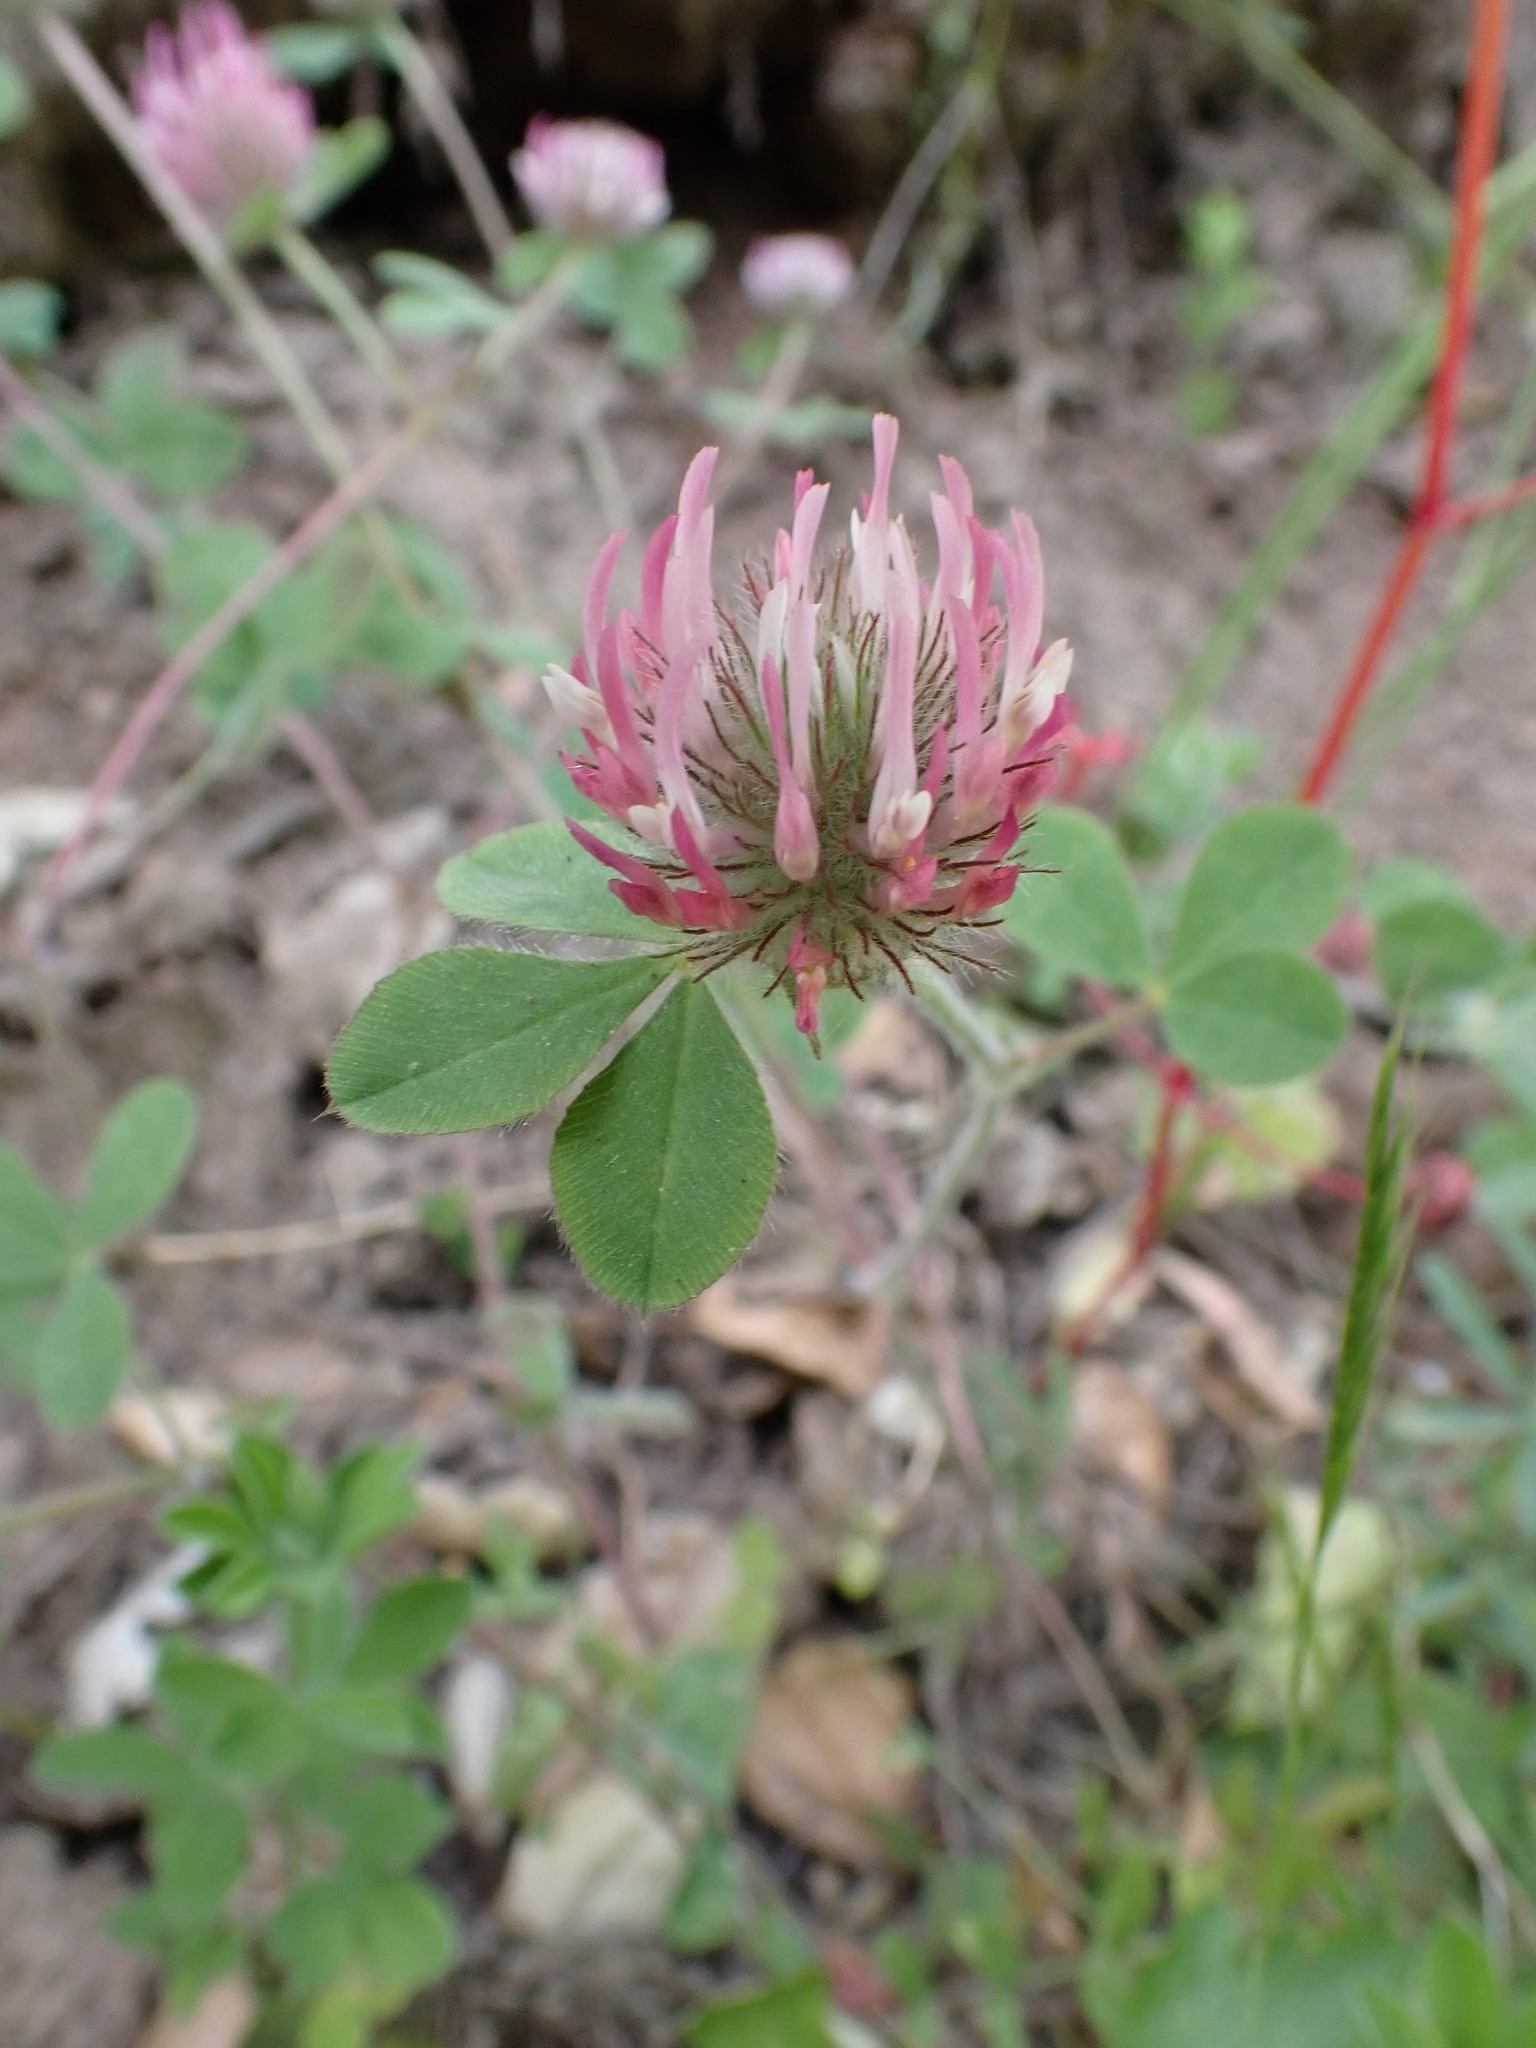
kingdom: Plantae
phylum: Tracheophyta
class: Magnoliopsida
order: Fabales
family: Fabaceae
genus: Trifolium
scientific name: Trifolium hirtum
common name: Rose clover
